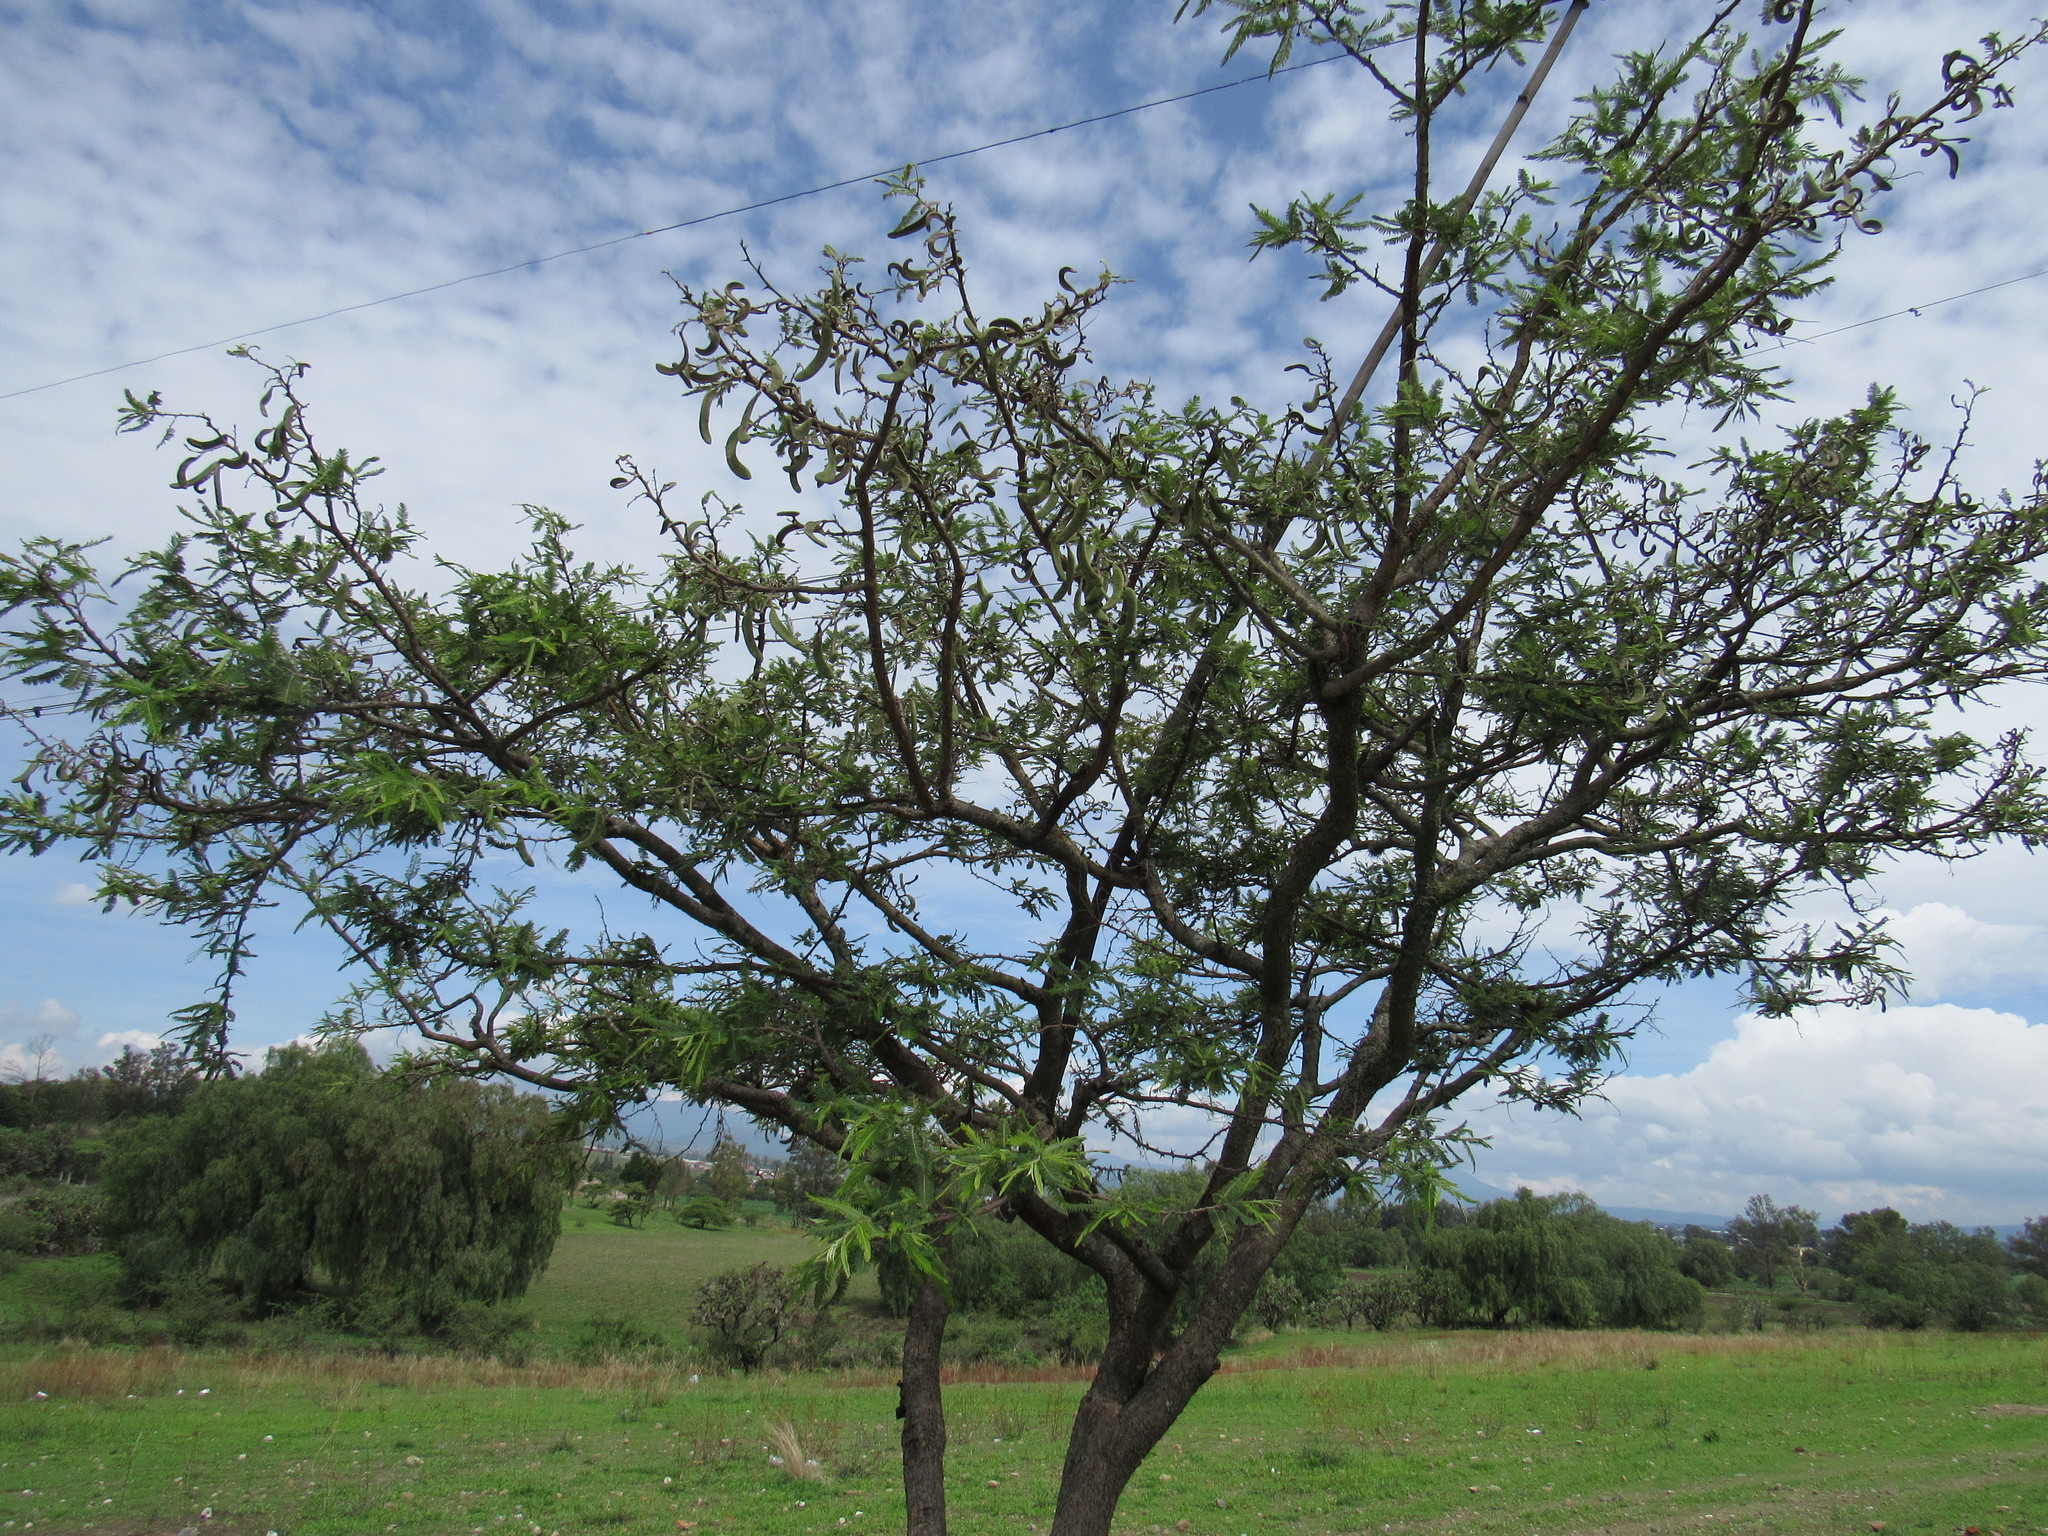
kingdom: Plantae
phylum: Tracheophyta
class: Magnoliopsida
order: Fabales
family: Fabaceae
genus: Vachellia
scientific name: Vachellia pennatula
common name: Fern-leaf acacia
